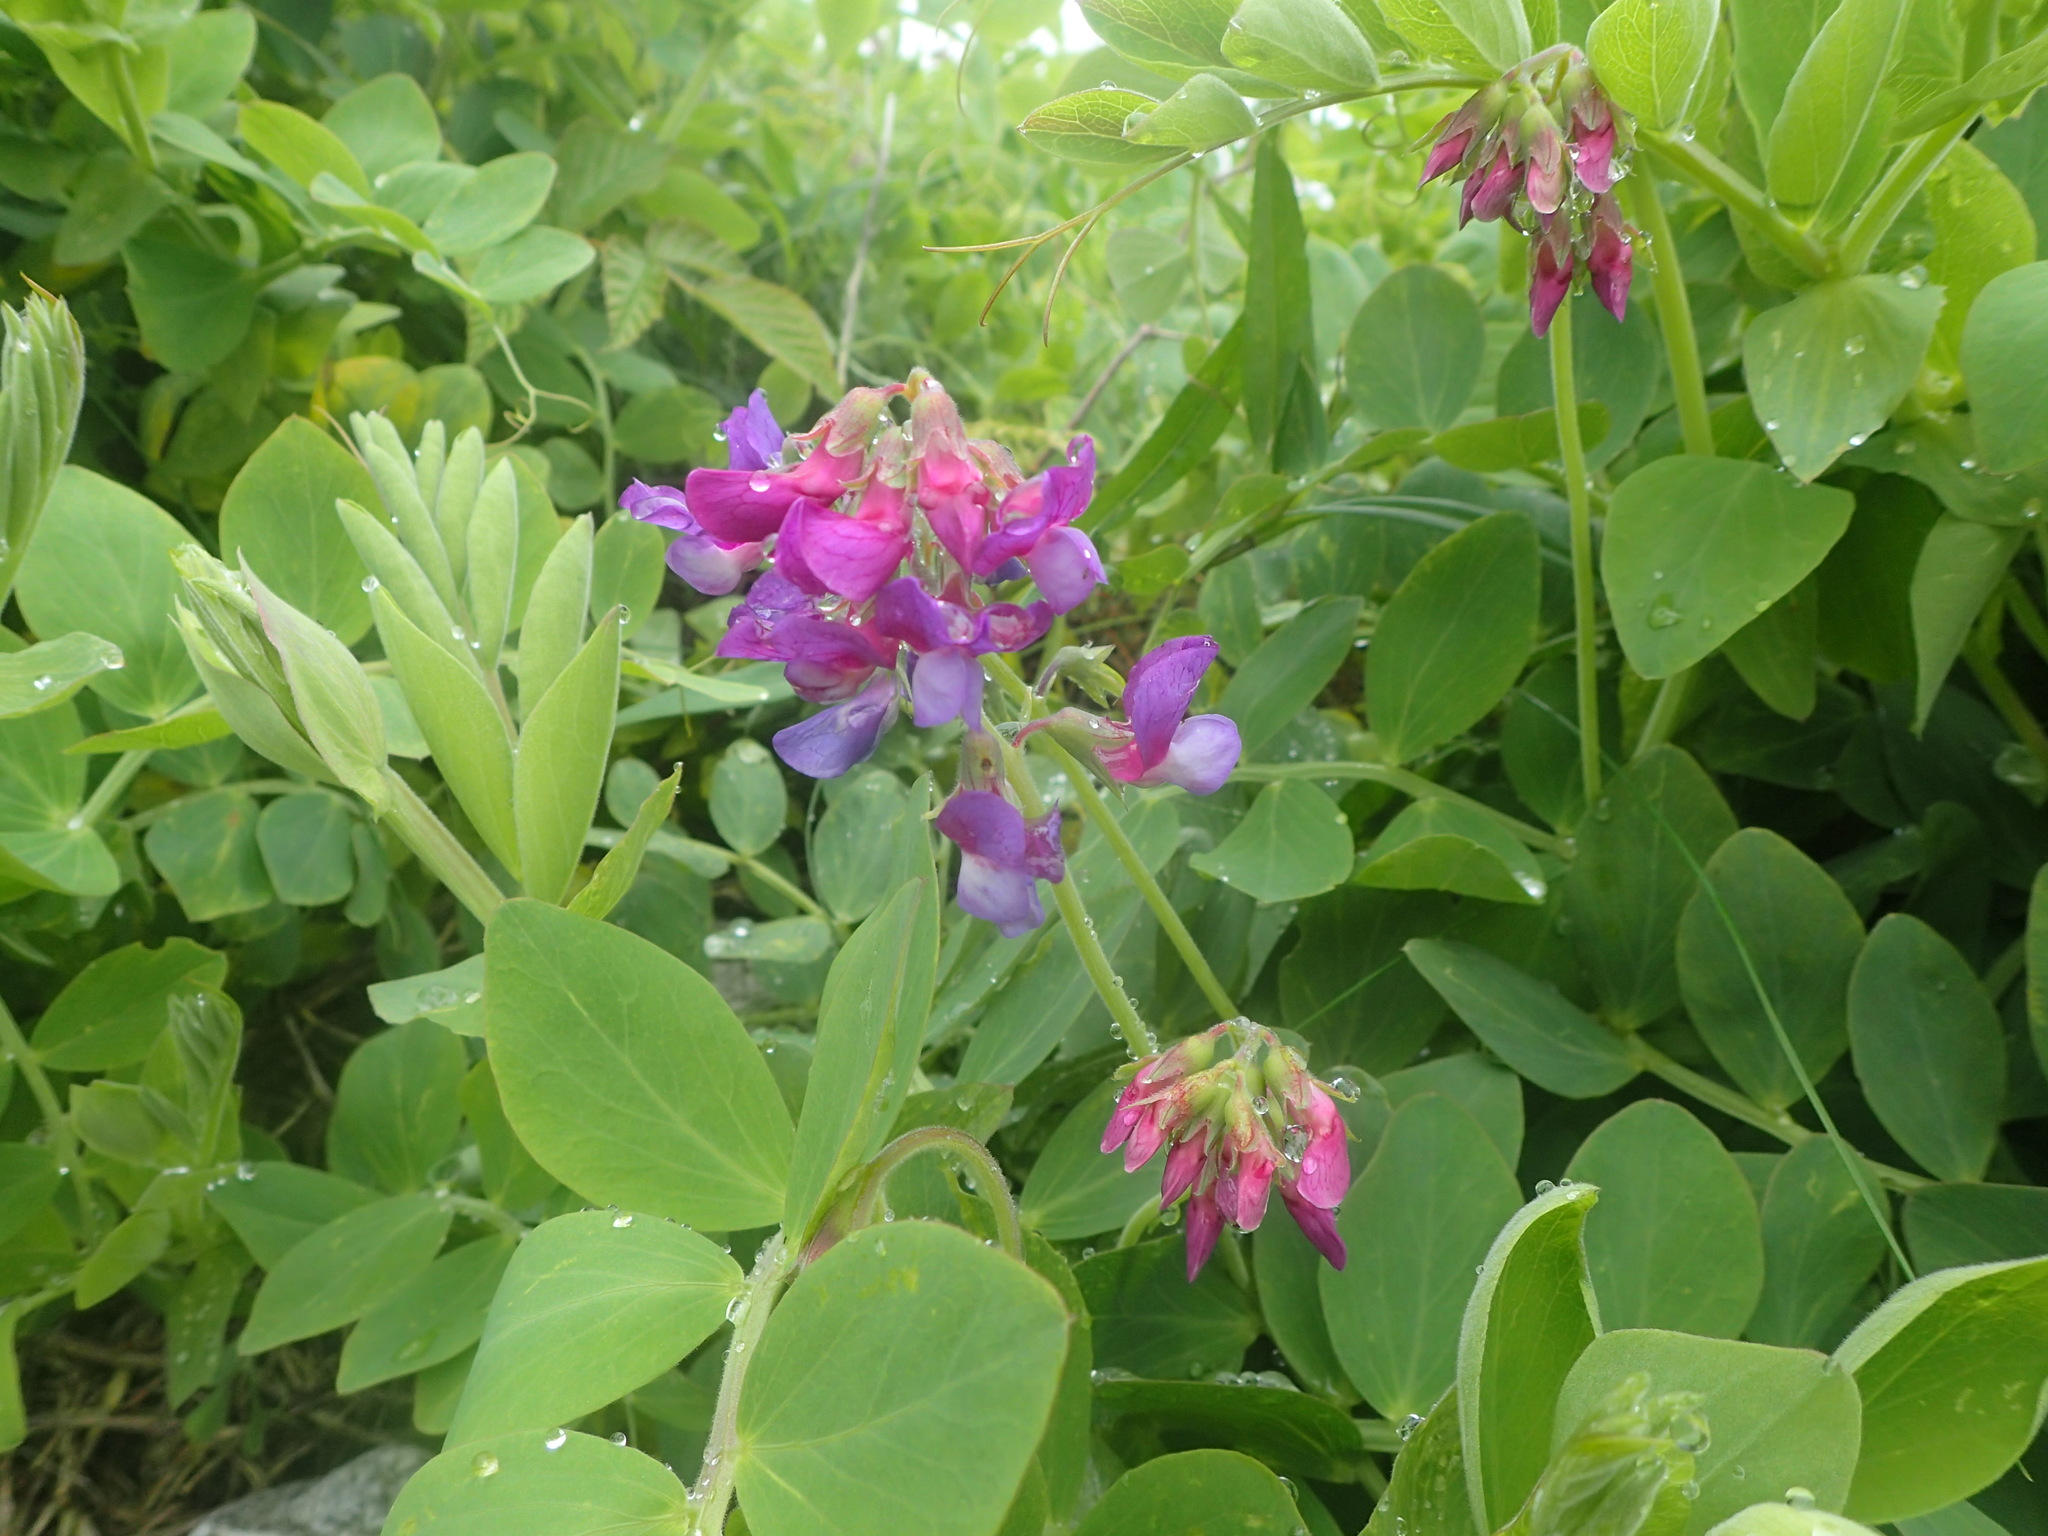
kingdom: Plantae
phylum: Tracheophyta
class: Magnoliopsida
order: Fabales
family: Fabaceae
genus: Lathyrus
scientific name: Lathyrus japonicus
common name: Sea pea
